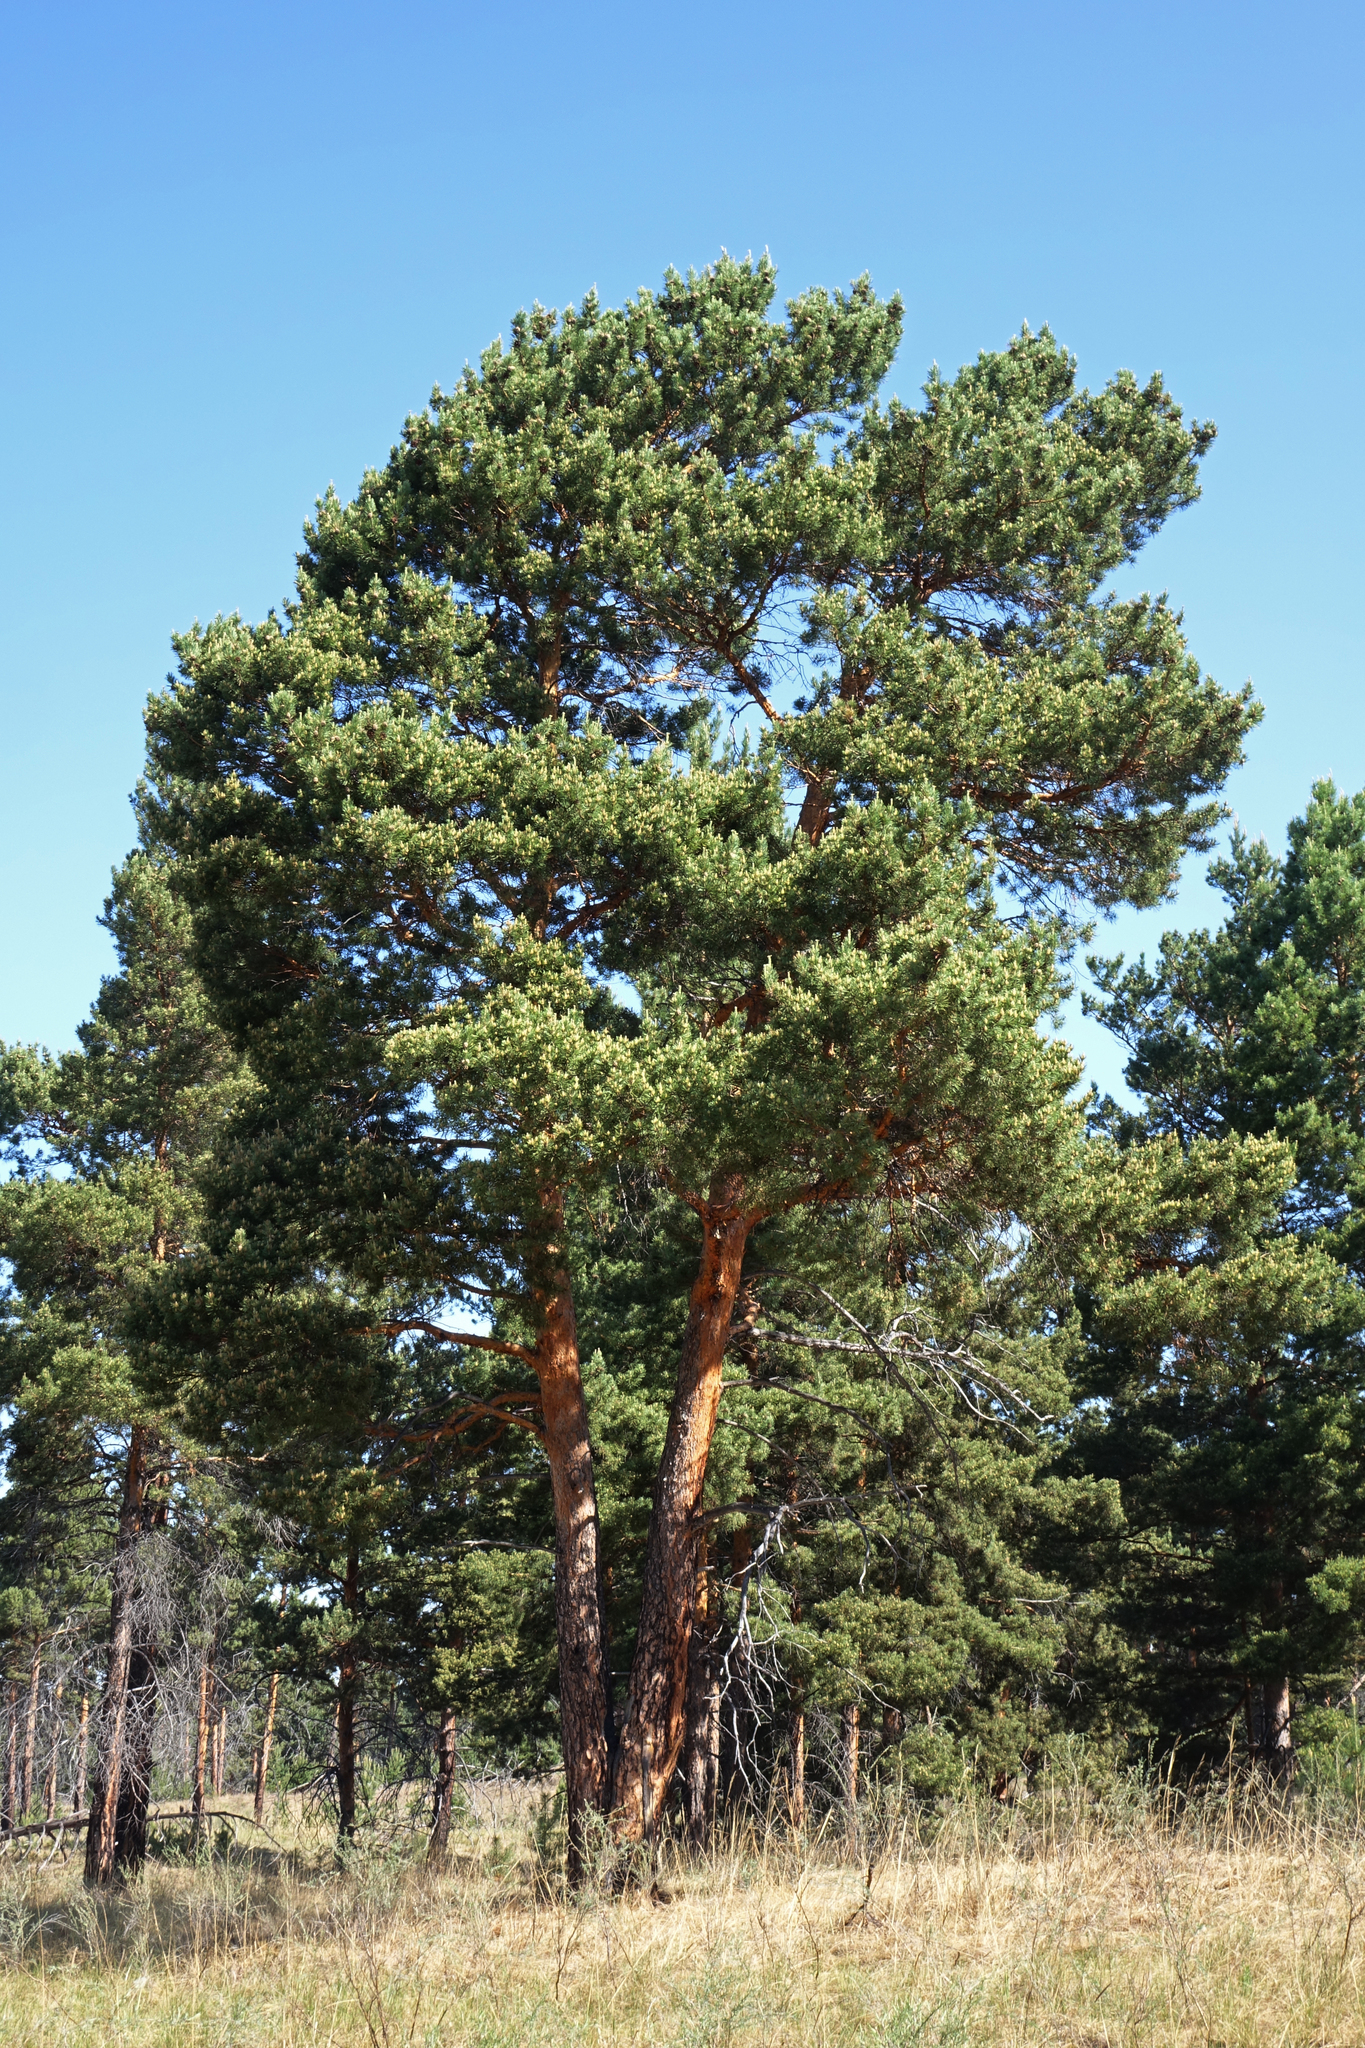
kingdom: Plantae
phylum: Tracheophyta
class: Pinopsida
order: Pinales
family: Pinaceae
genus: Pinus
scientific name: Pinus sylvestris
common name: Scots pine
